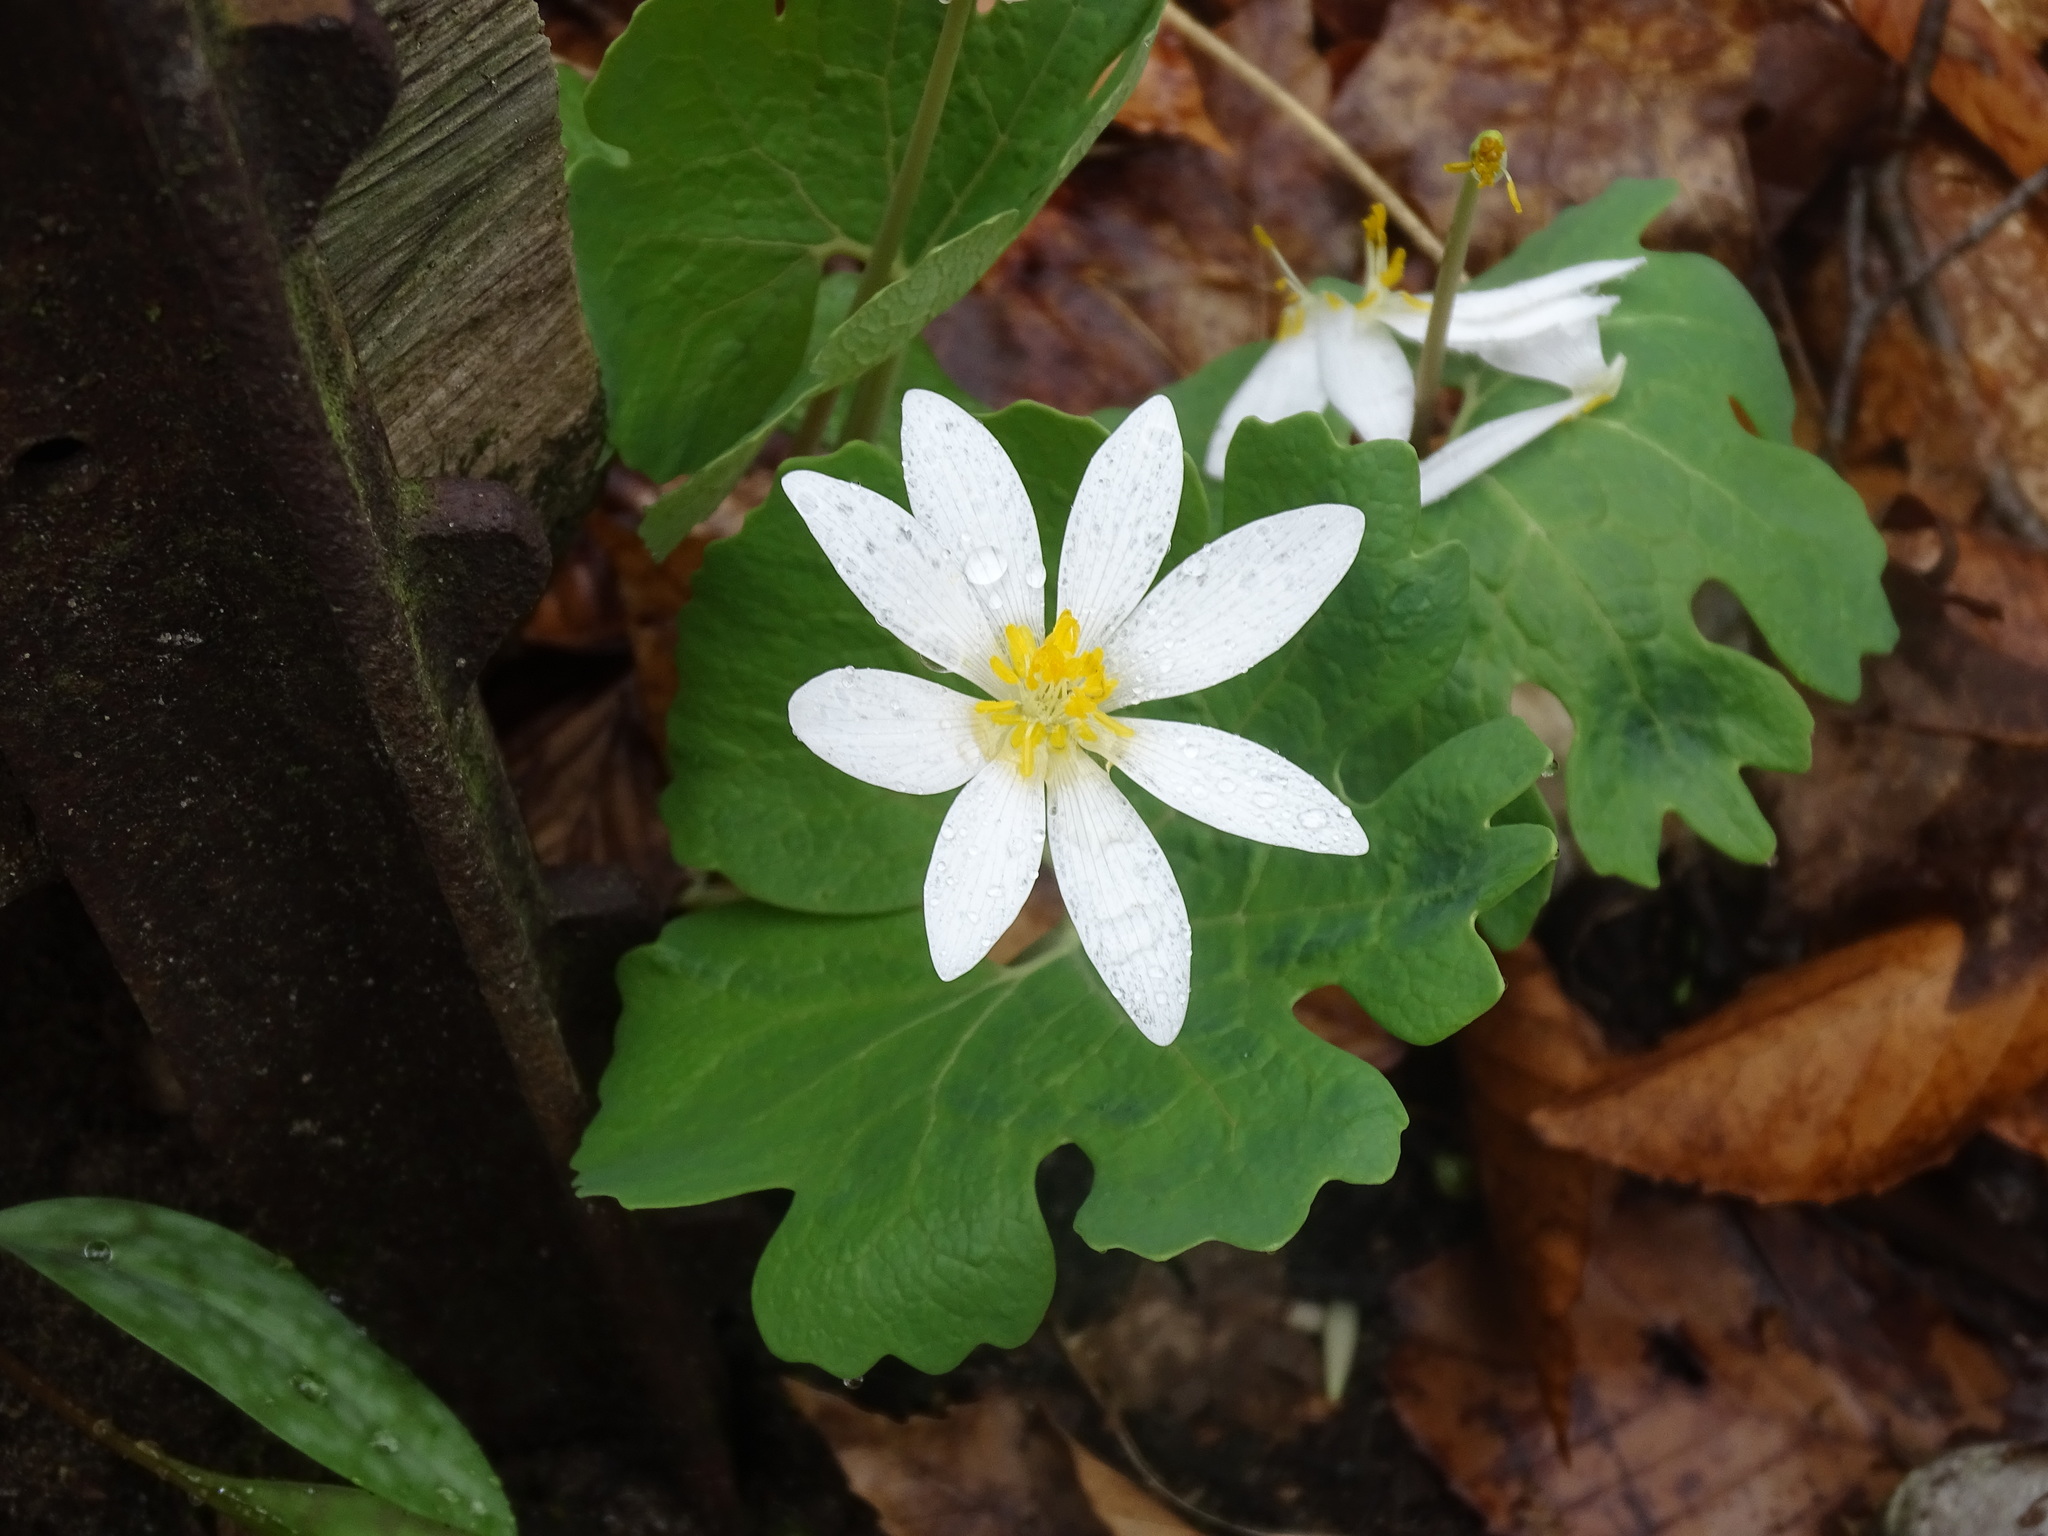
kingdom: Plantae
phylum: Tracheophyta
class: Magnoliopsida
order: Ranunculales
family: Papaveraceae
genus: Sanguinaria
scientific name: Sanguinaria canadensis
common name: Bloodroot
